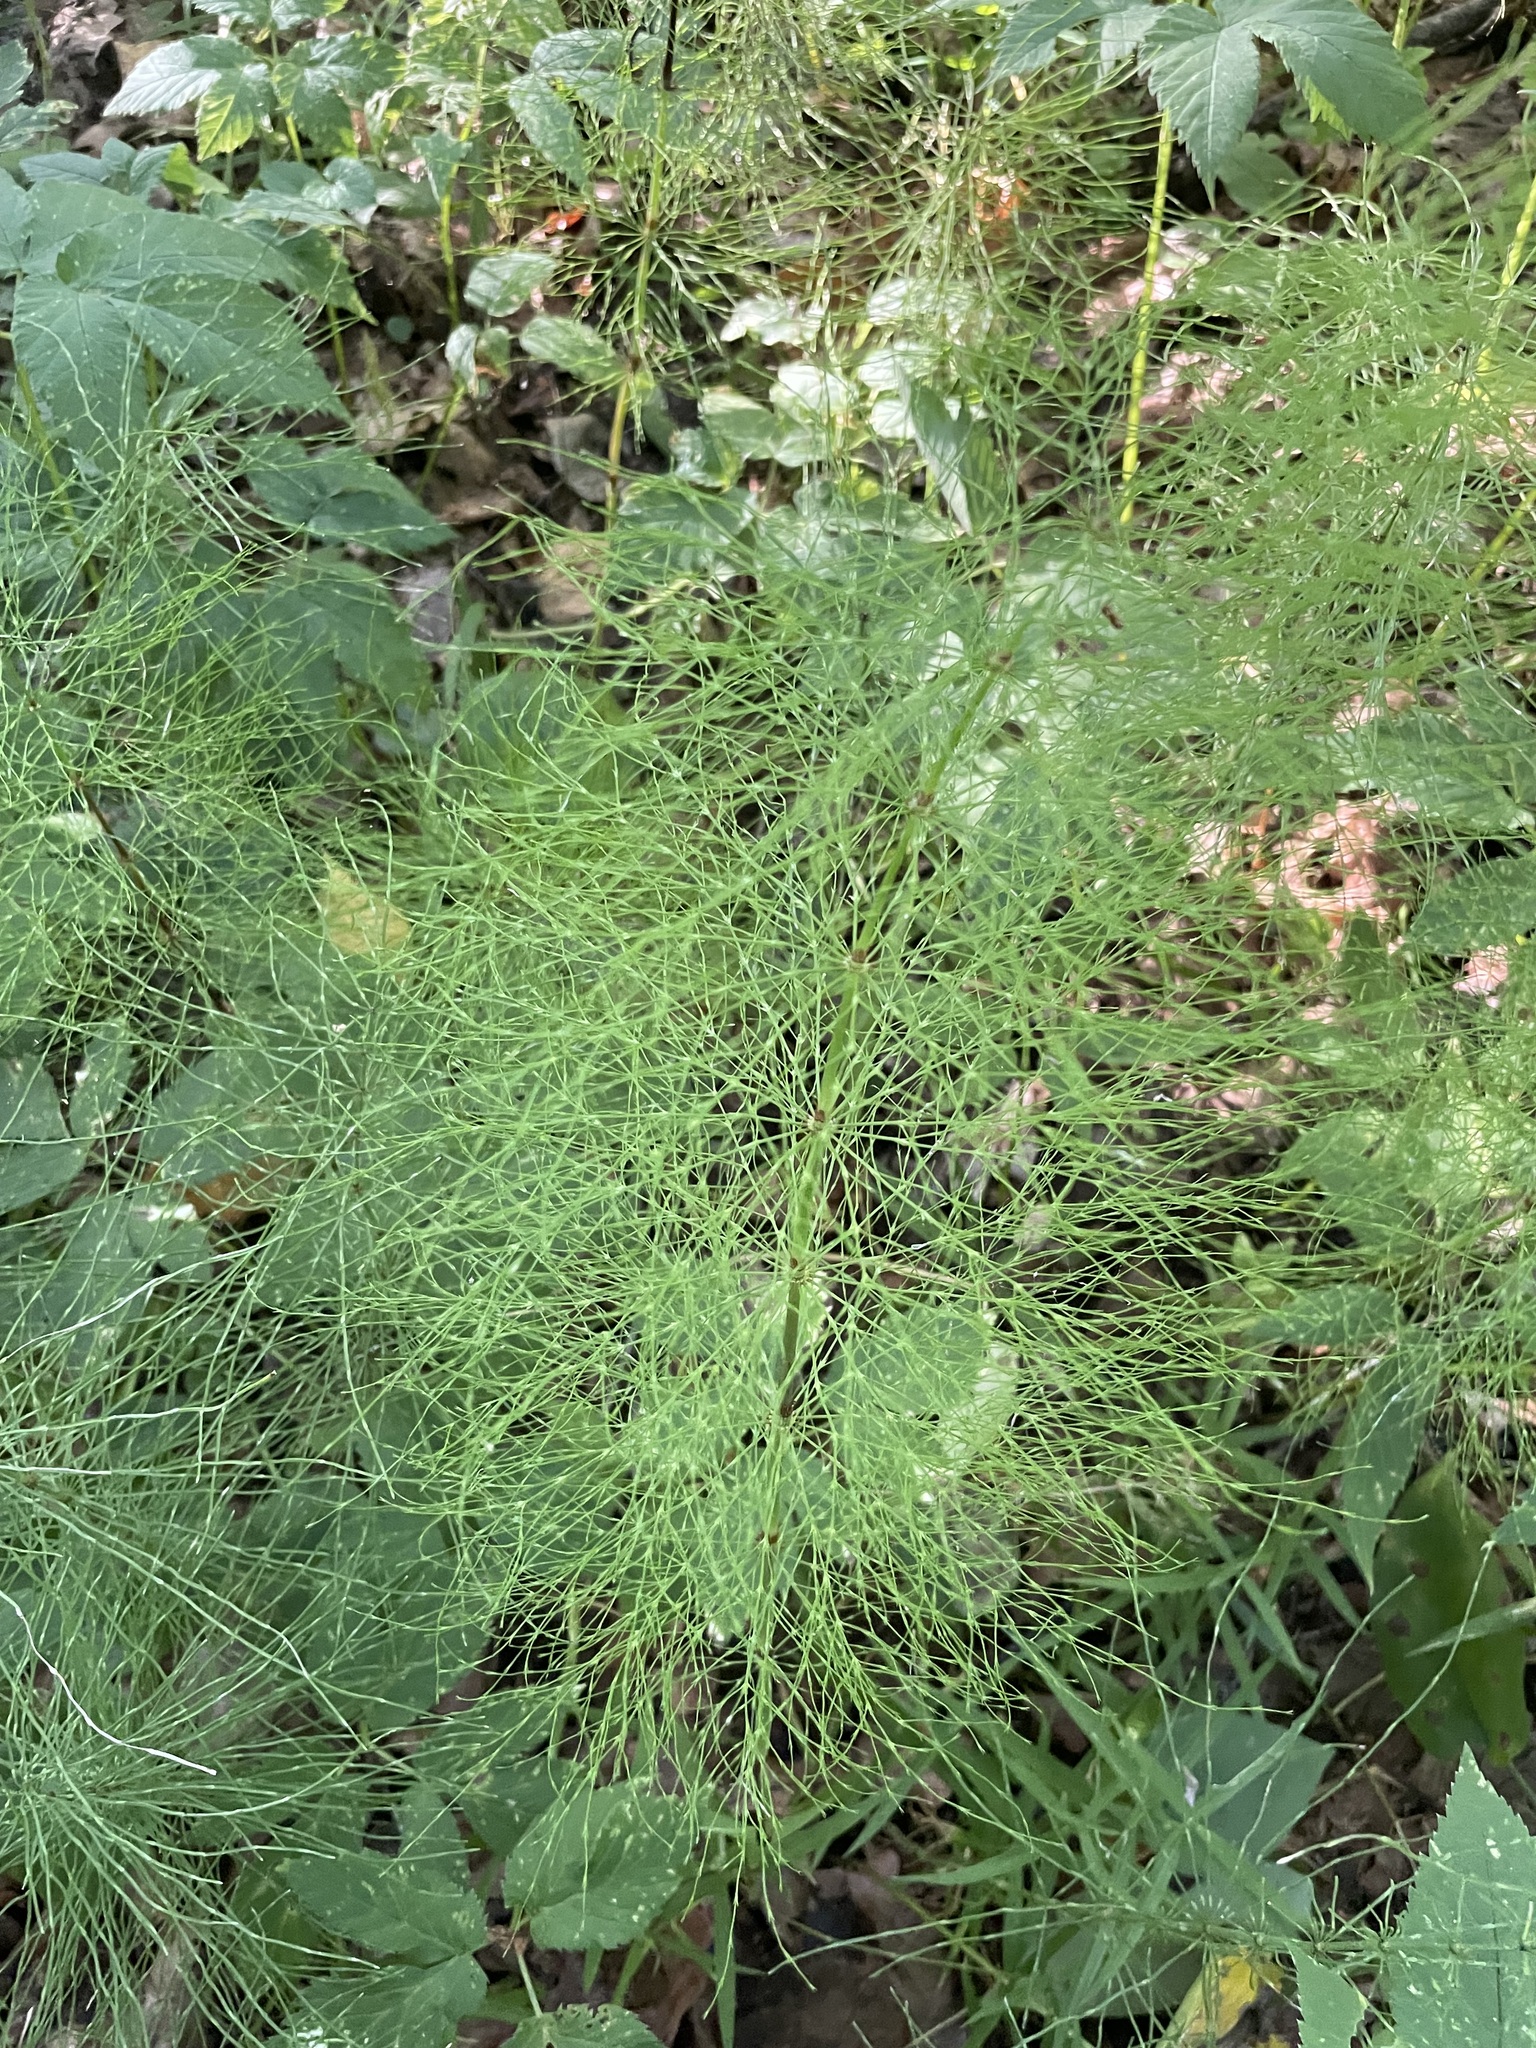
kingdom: Plantae
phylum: Tracheophyta
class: Polypodiopsida
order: Equisetales
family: Equisetaceae
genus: Equisetum
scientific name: Equisetum sylvaticum
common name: Wood horsetail
